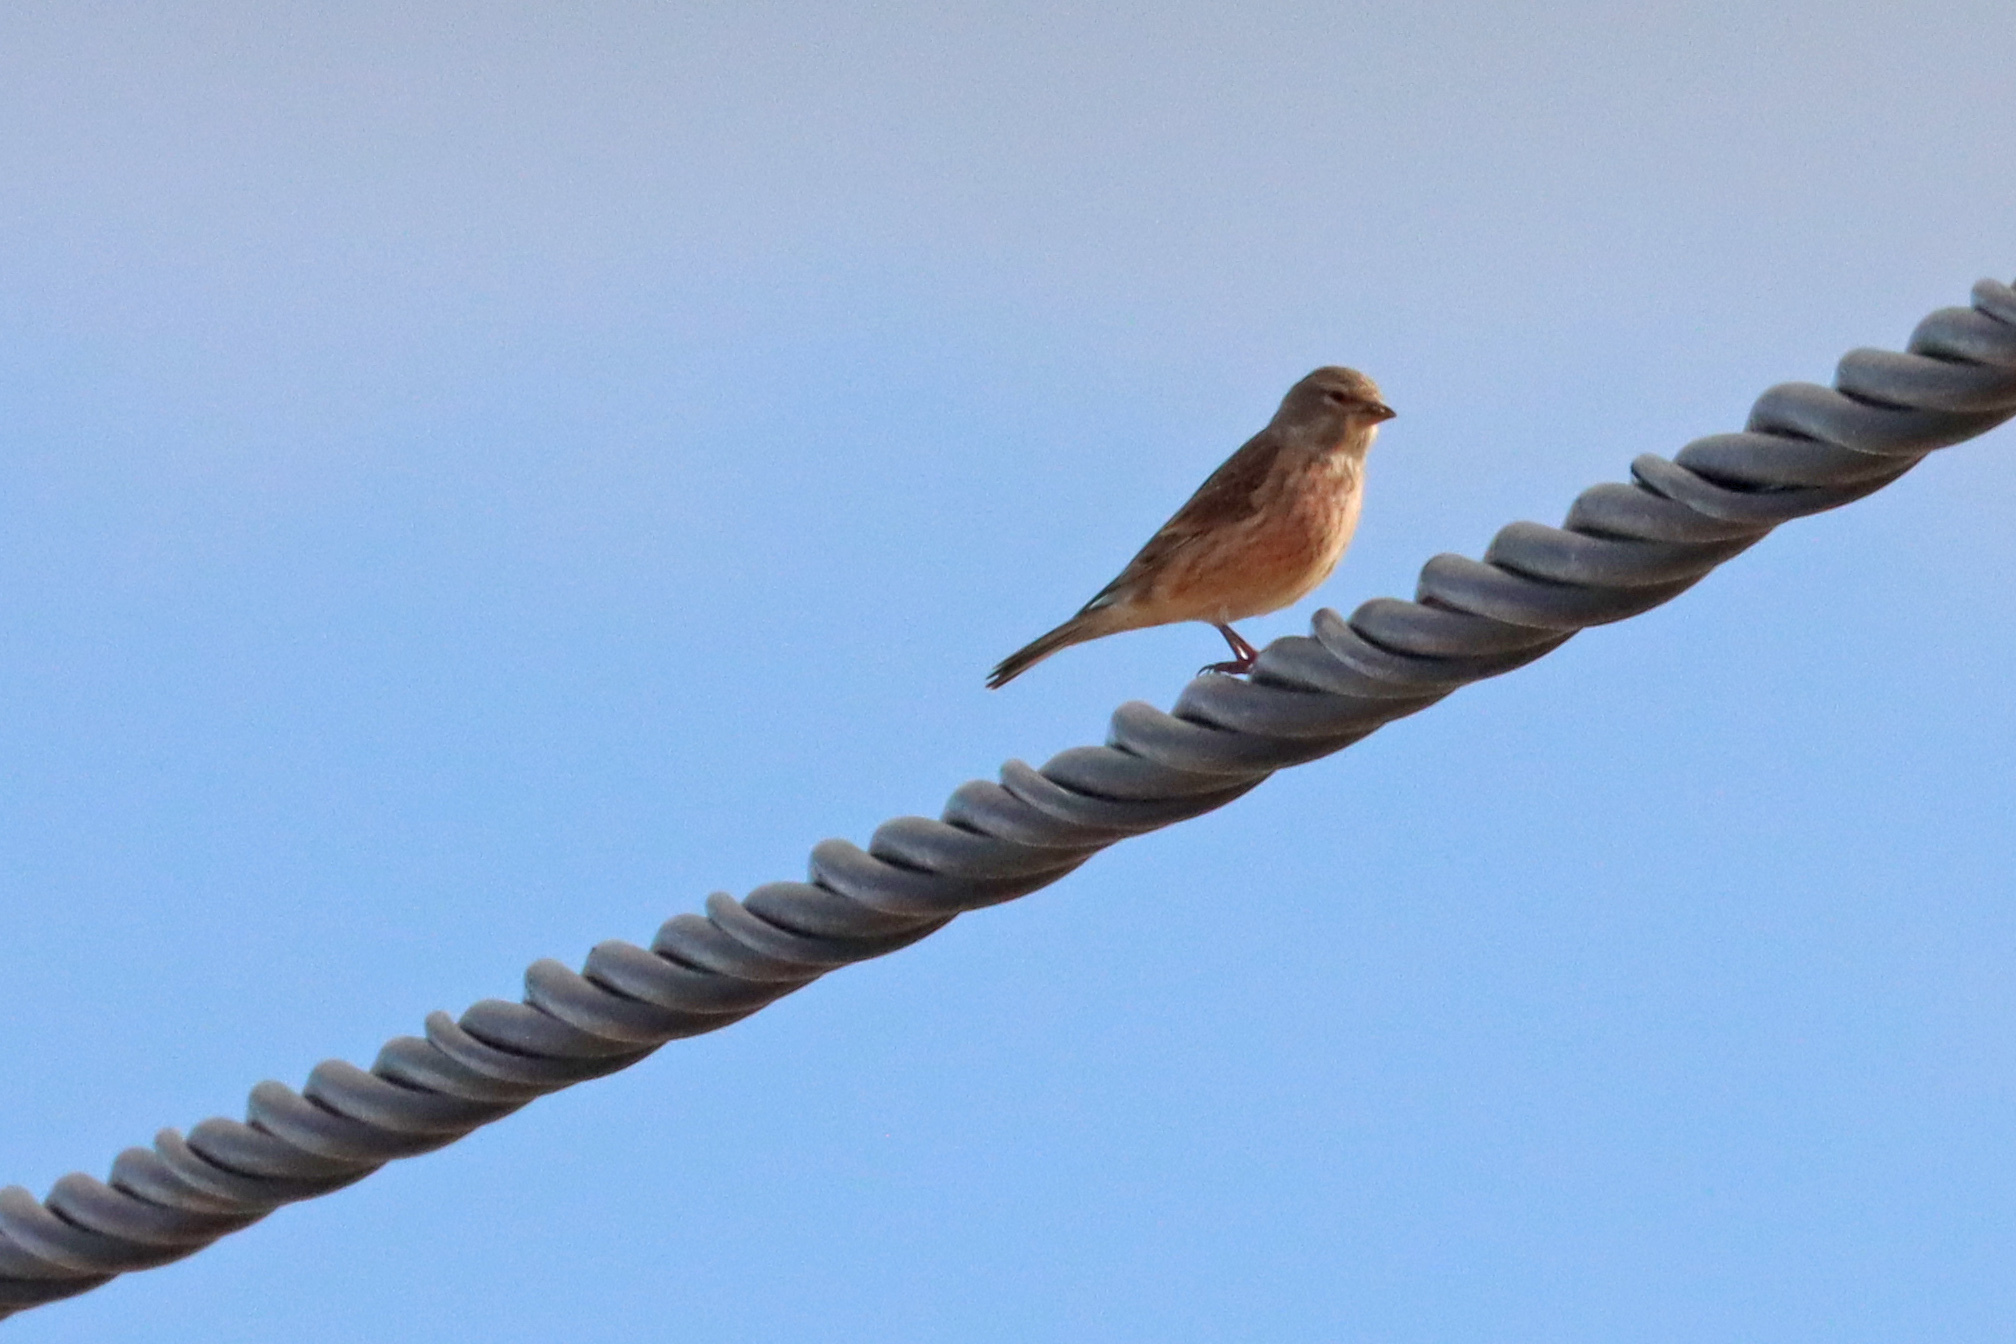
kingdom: Animalia
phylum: Chordata
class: Aves
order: Passeriformes
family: Fringillidae
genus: Linaria
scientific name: Linaria cannabina
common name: Common linnet
